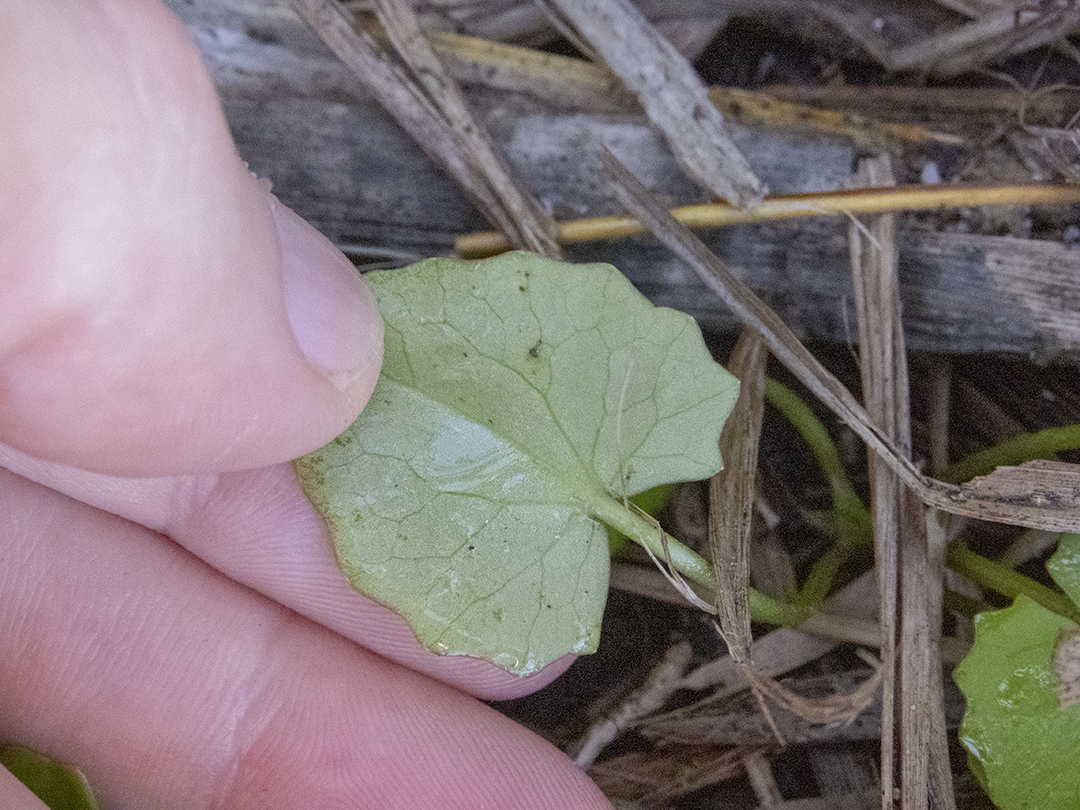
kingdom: Plantae
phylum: Tracheophyta
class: Magnoliopsida
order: Apiales
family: Apiaceae
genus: Centella
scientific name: Centella uniflora
